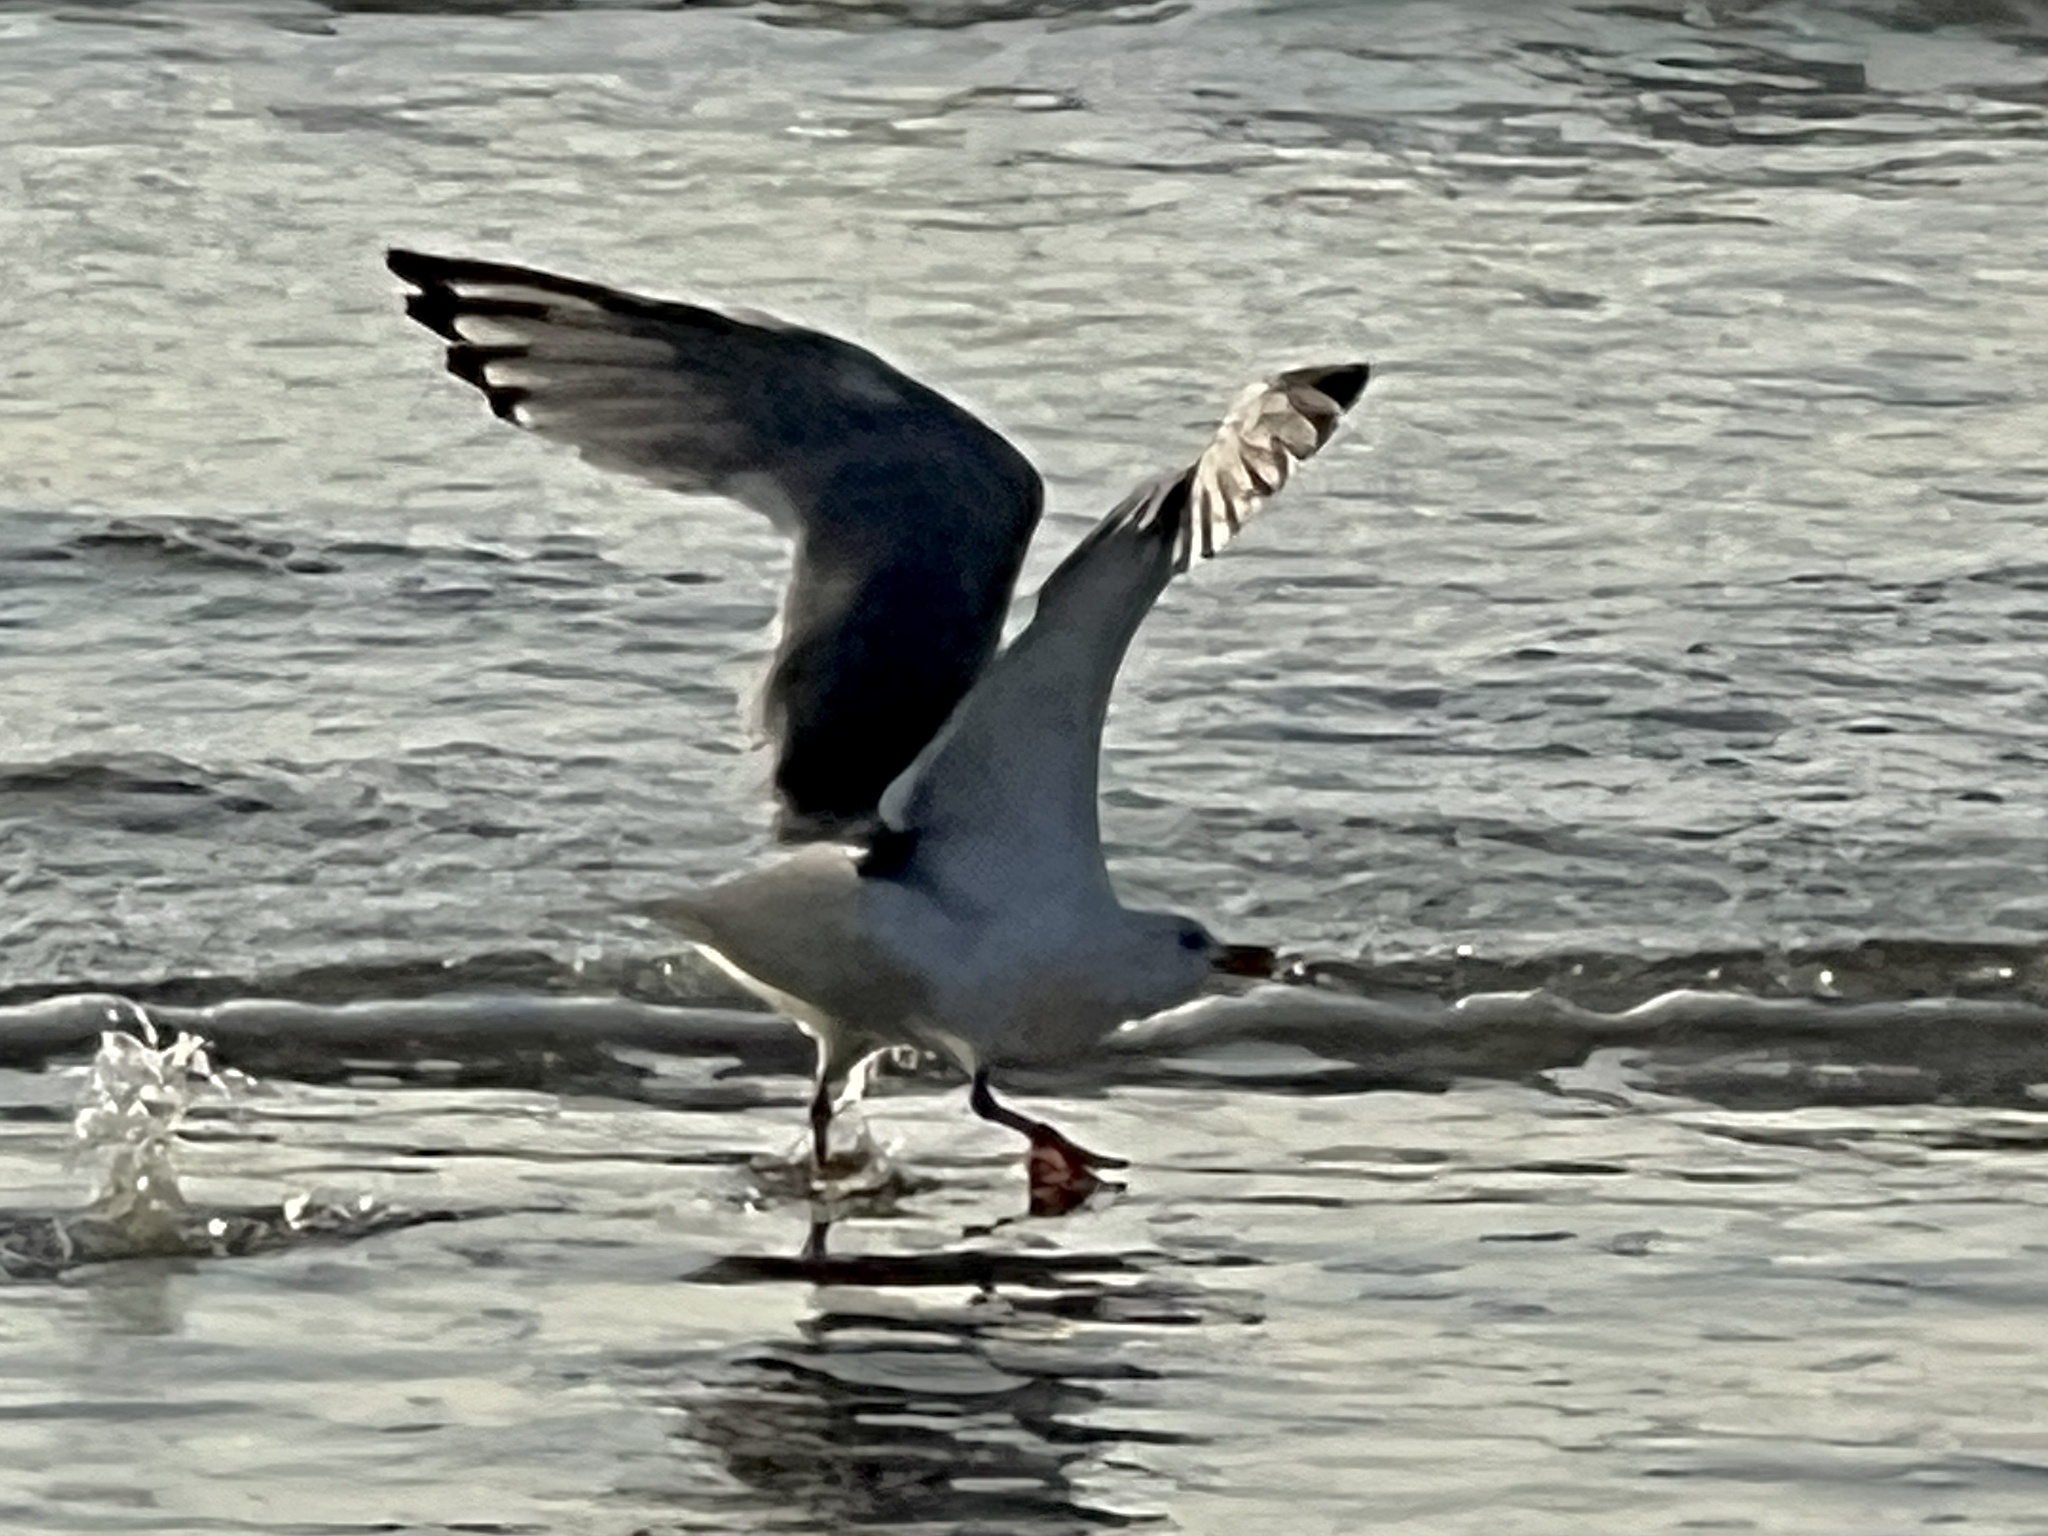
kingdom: Animalia
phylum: Chordata
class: Aves
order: Charadriiformes
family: Laridae
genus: Larus
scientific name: Larus argentatus
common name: Herring gull
